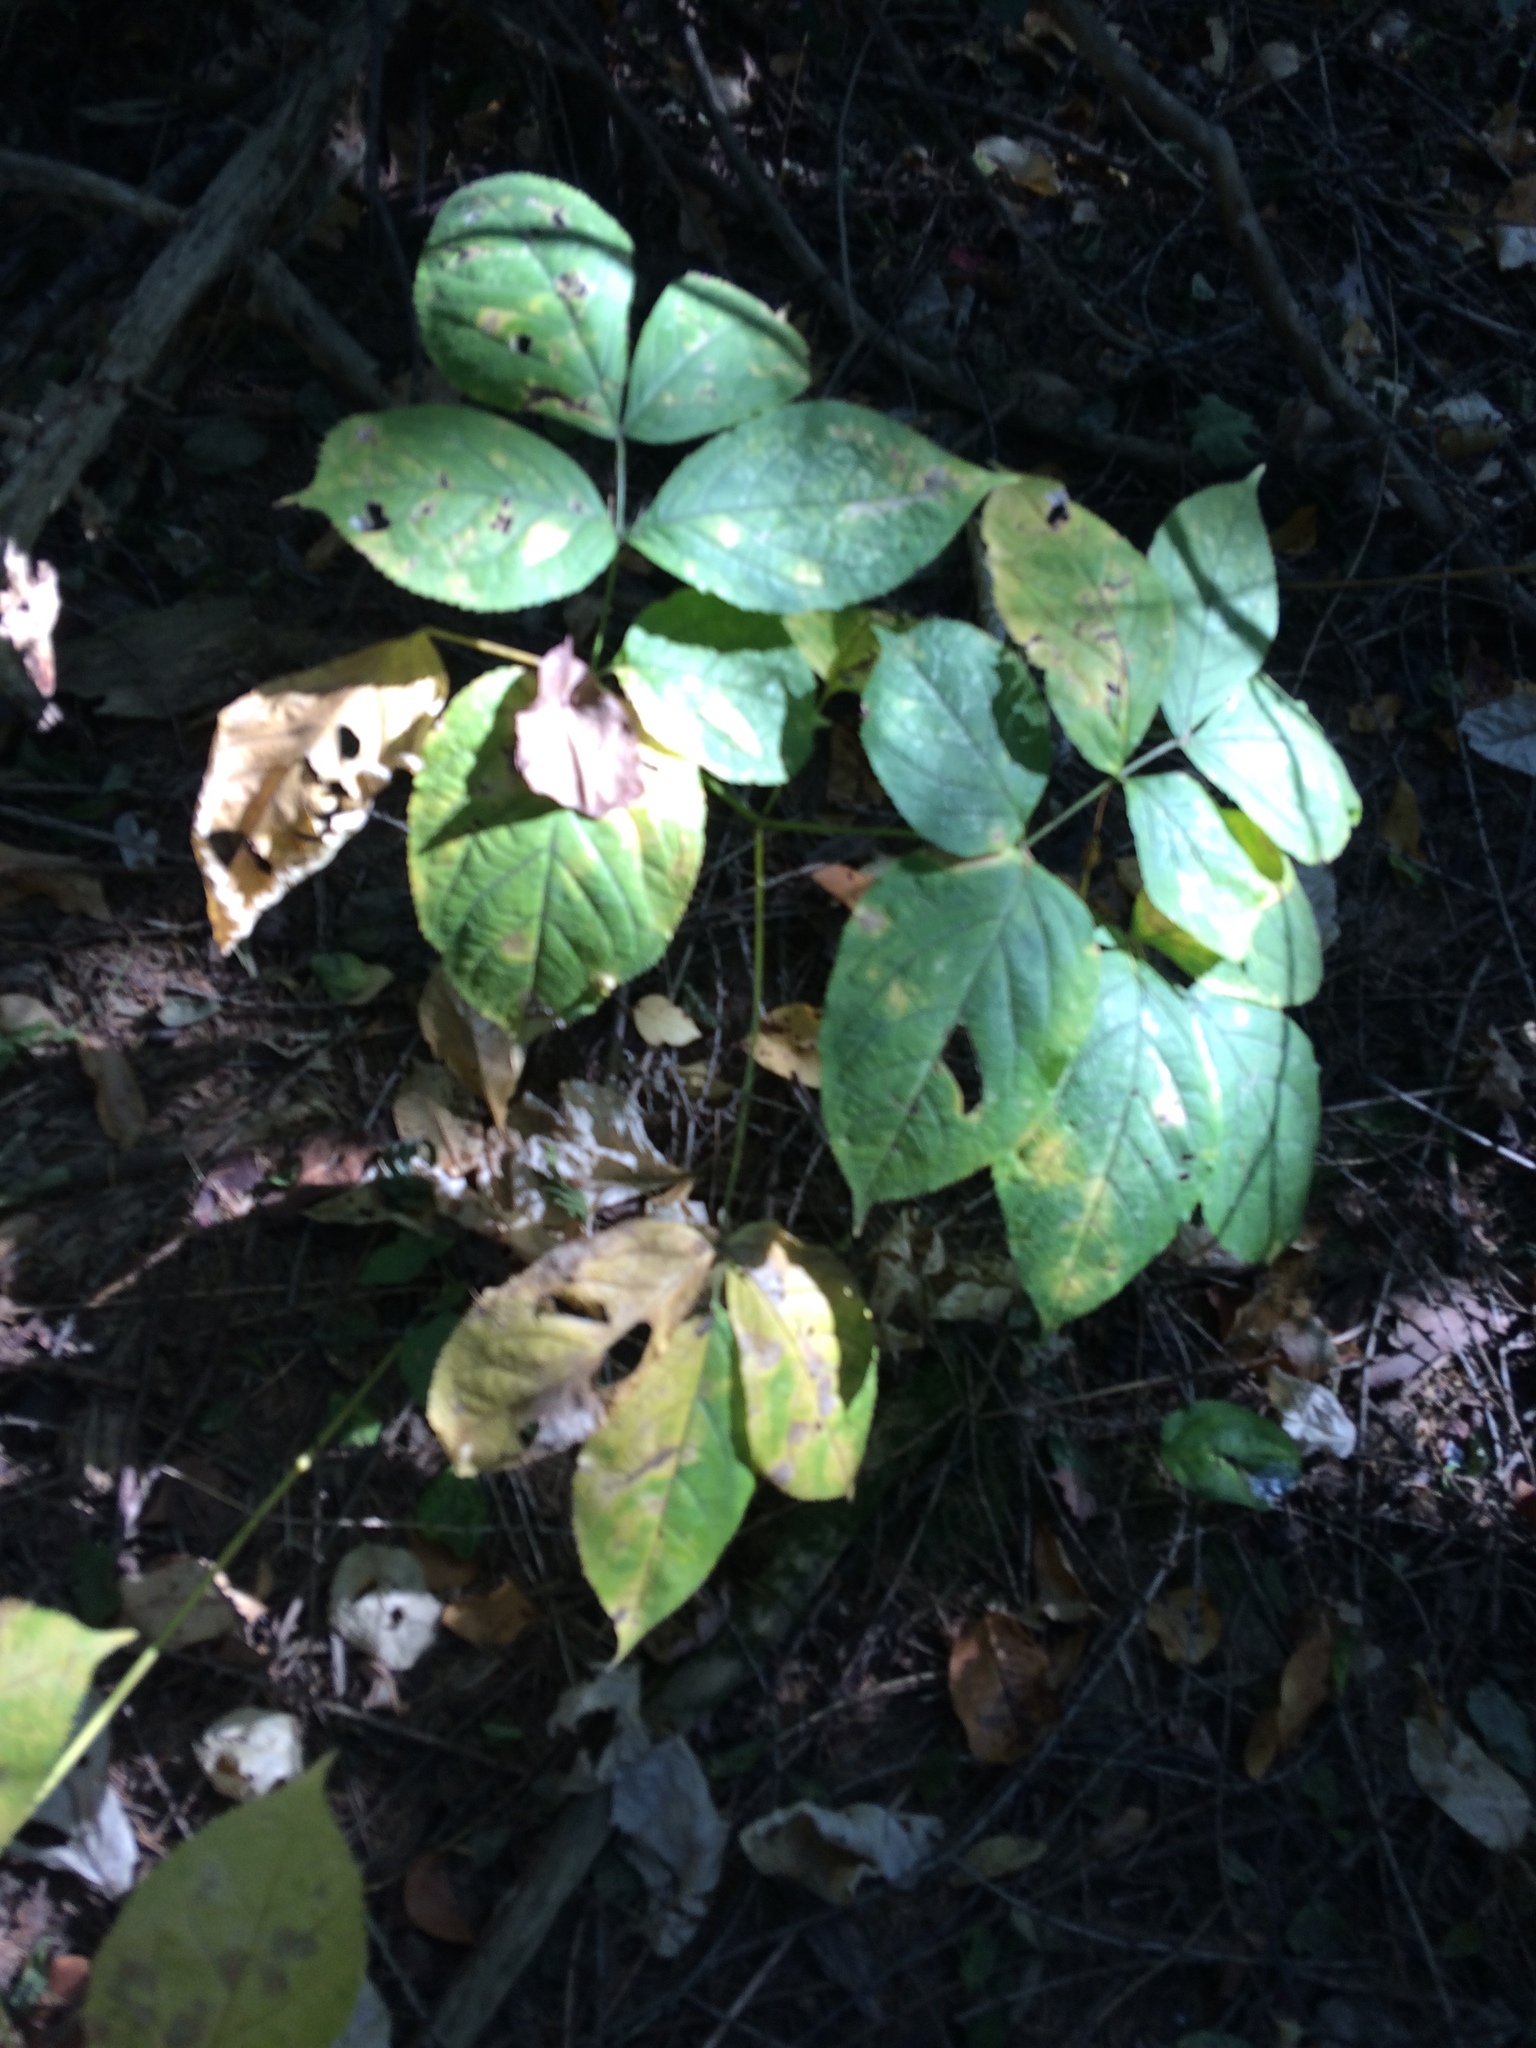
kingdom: Plantae
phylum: Tracheophyta
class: Magnoliopsida
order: Apiales
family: Araliaceae
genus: Aralia
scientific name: Aralia nudicaulis
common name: Wild sarsaparilla
